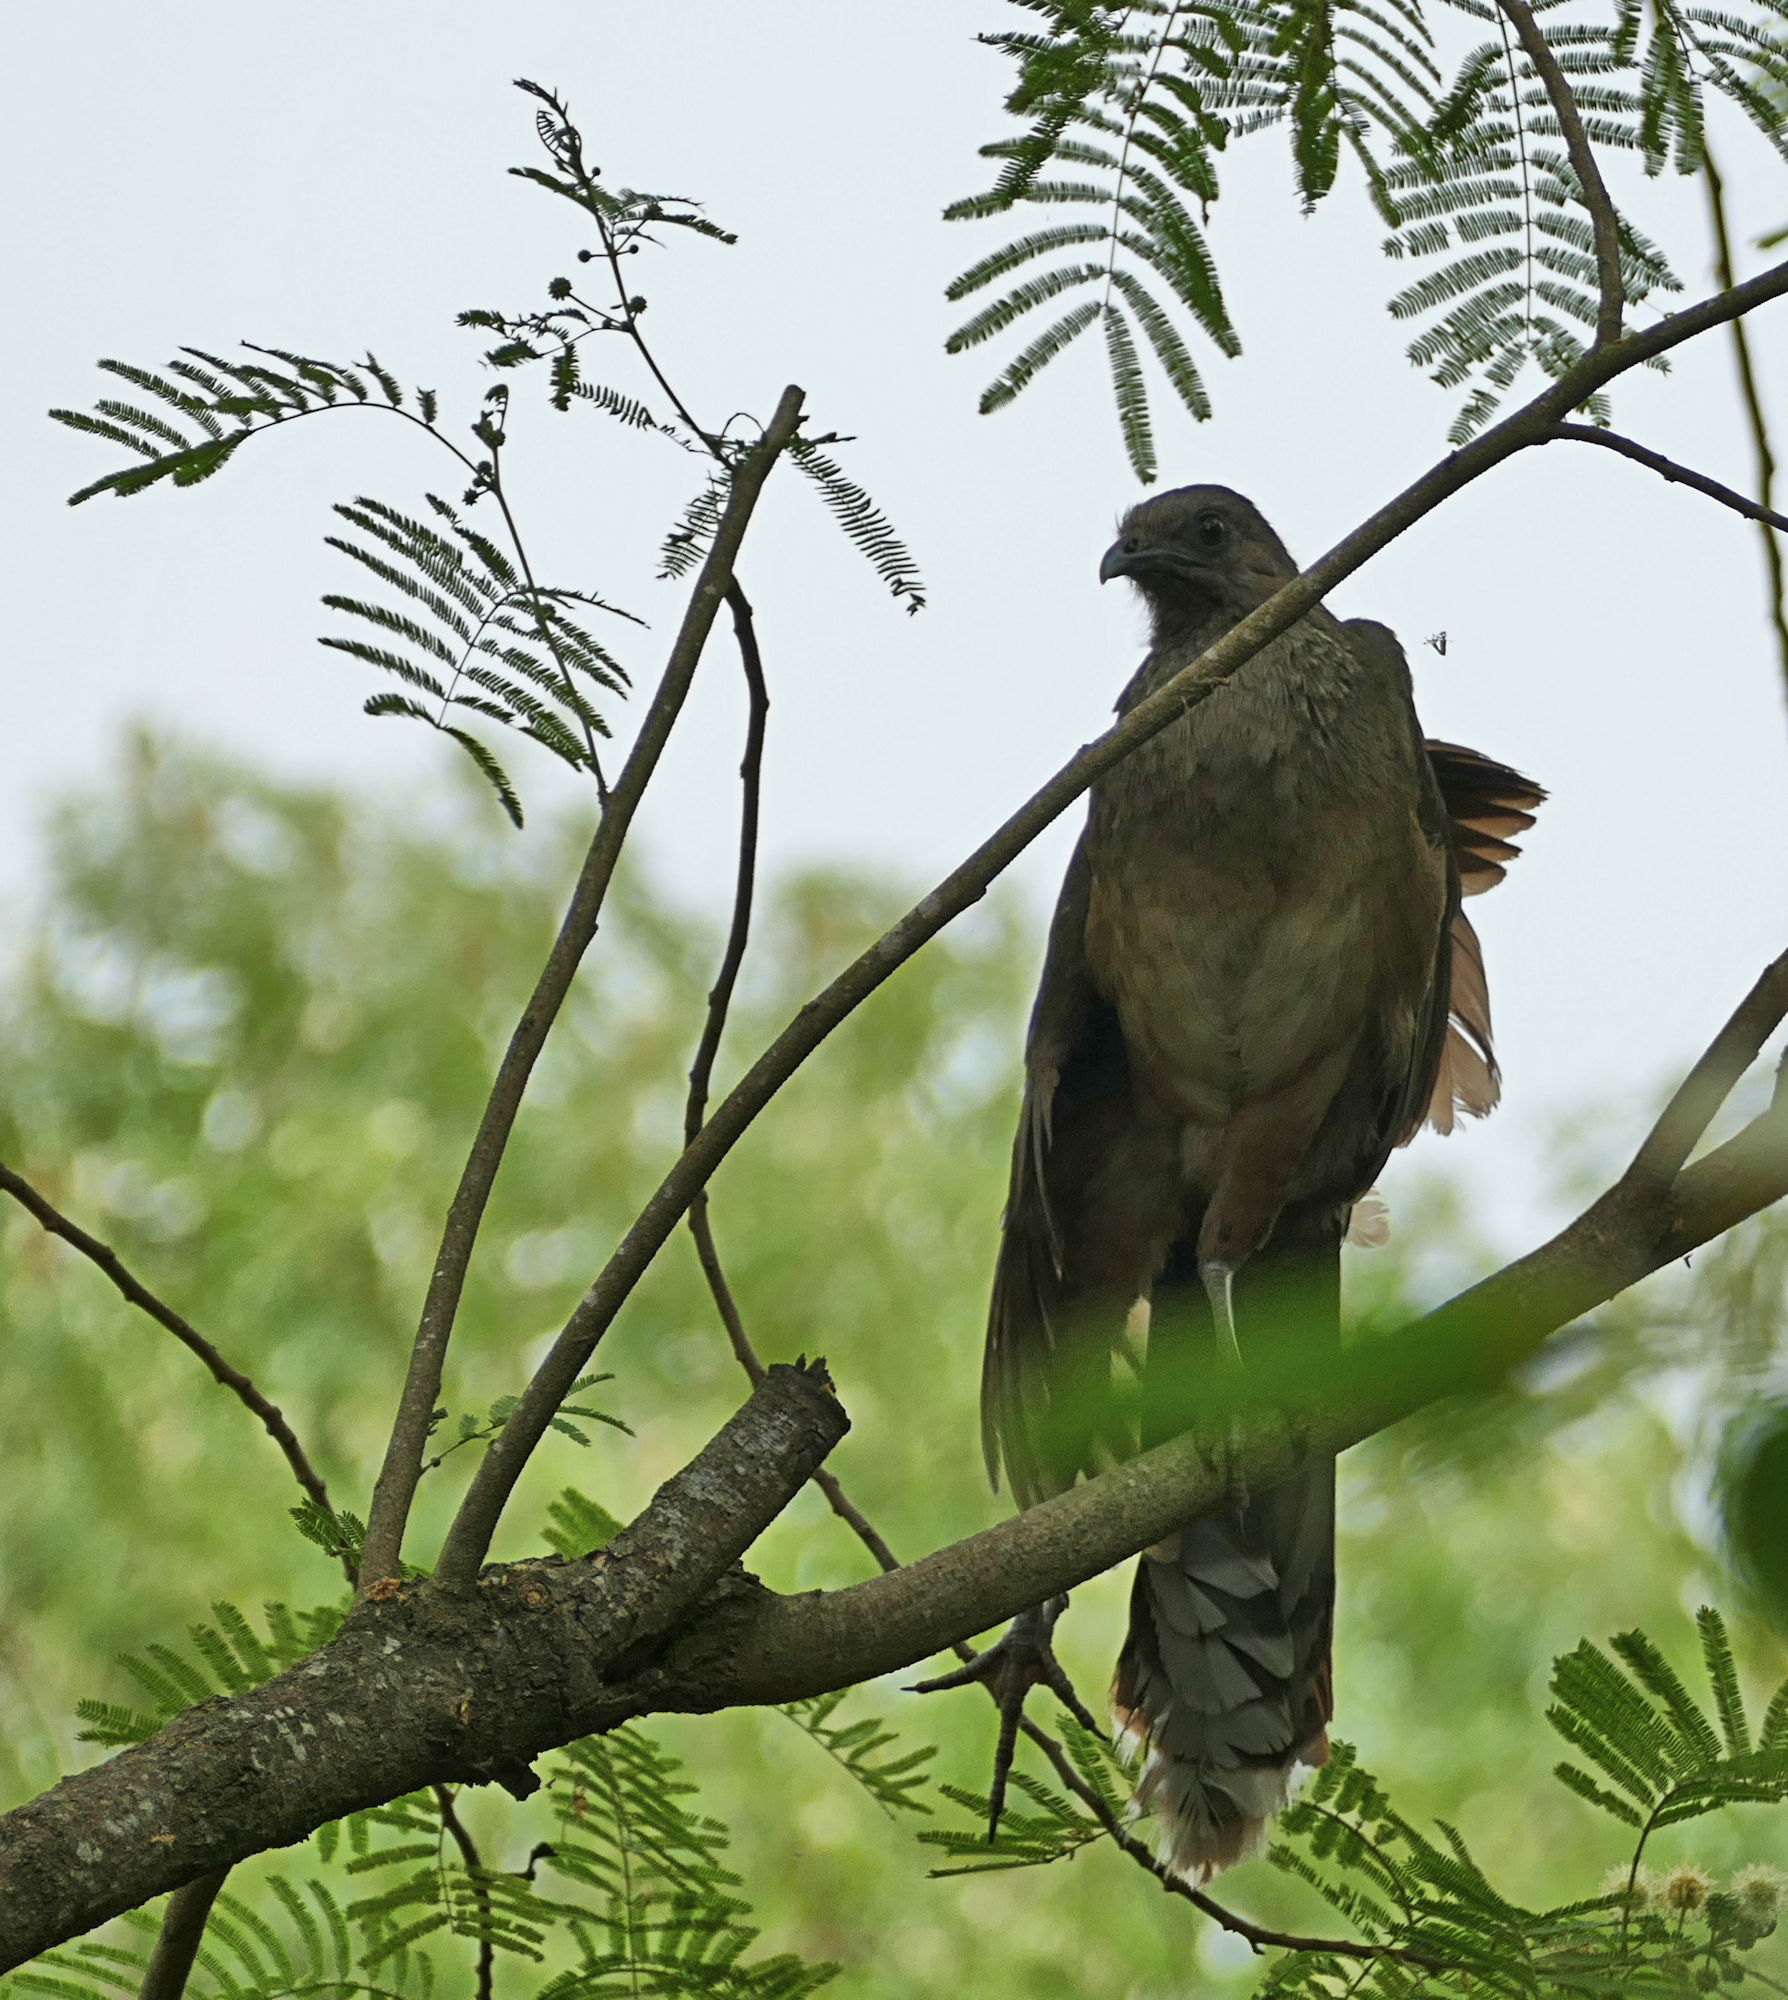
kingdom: Animalia
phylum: Chordata
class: Aves
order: Galliformes
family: Cracidae
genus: Ortalis
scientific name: Ortalis vetula
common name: Plain chachalaca
